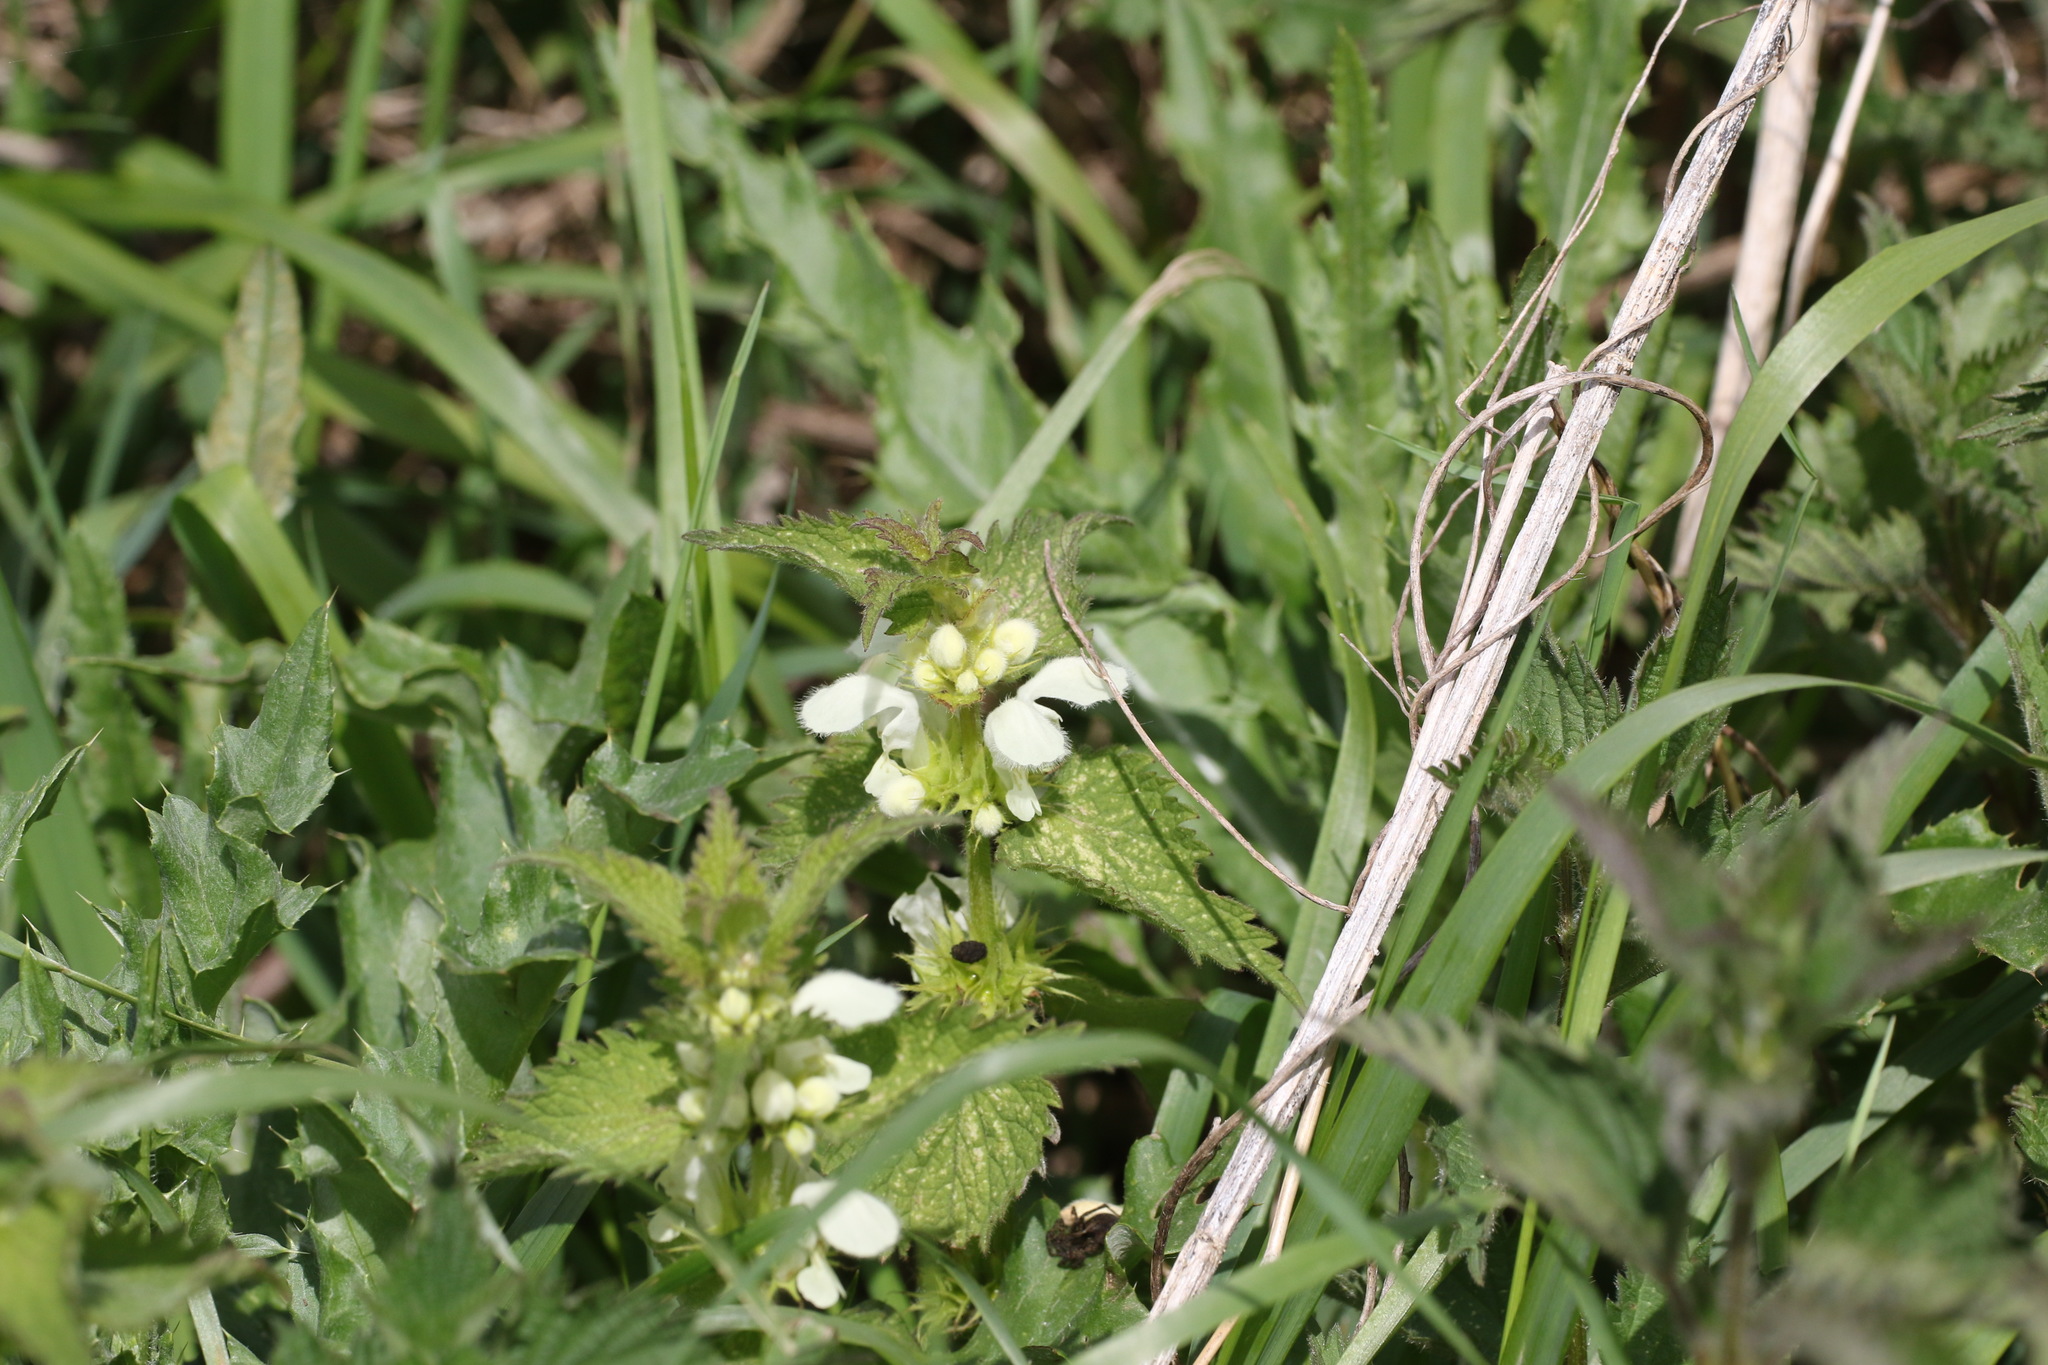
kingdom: Plantae
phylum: Tracheophyta
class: Magnoliopsida
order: Lamiales
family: Lamiaceae
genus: Lamium
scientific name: Lamium album
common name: White dead-nettle
